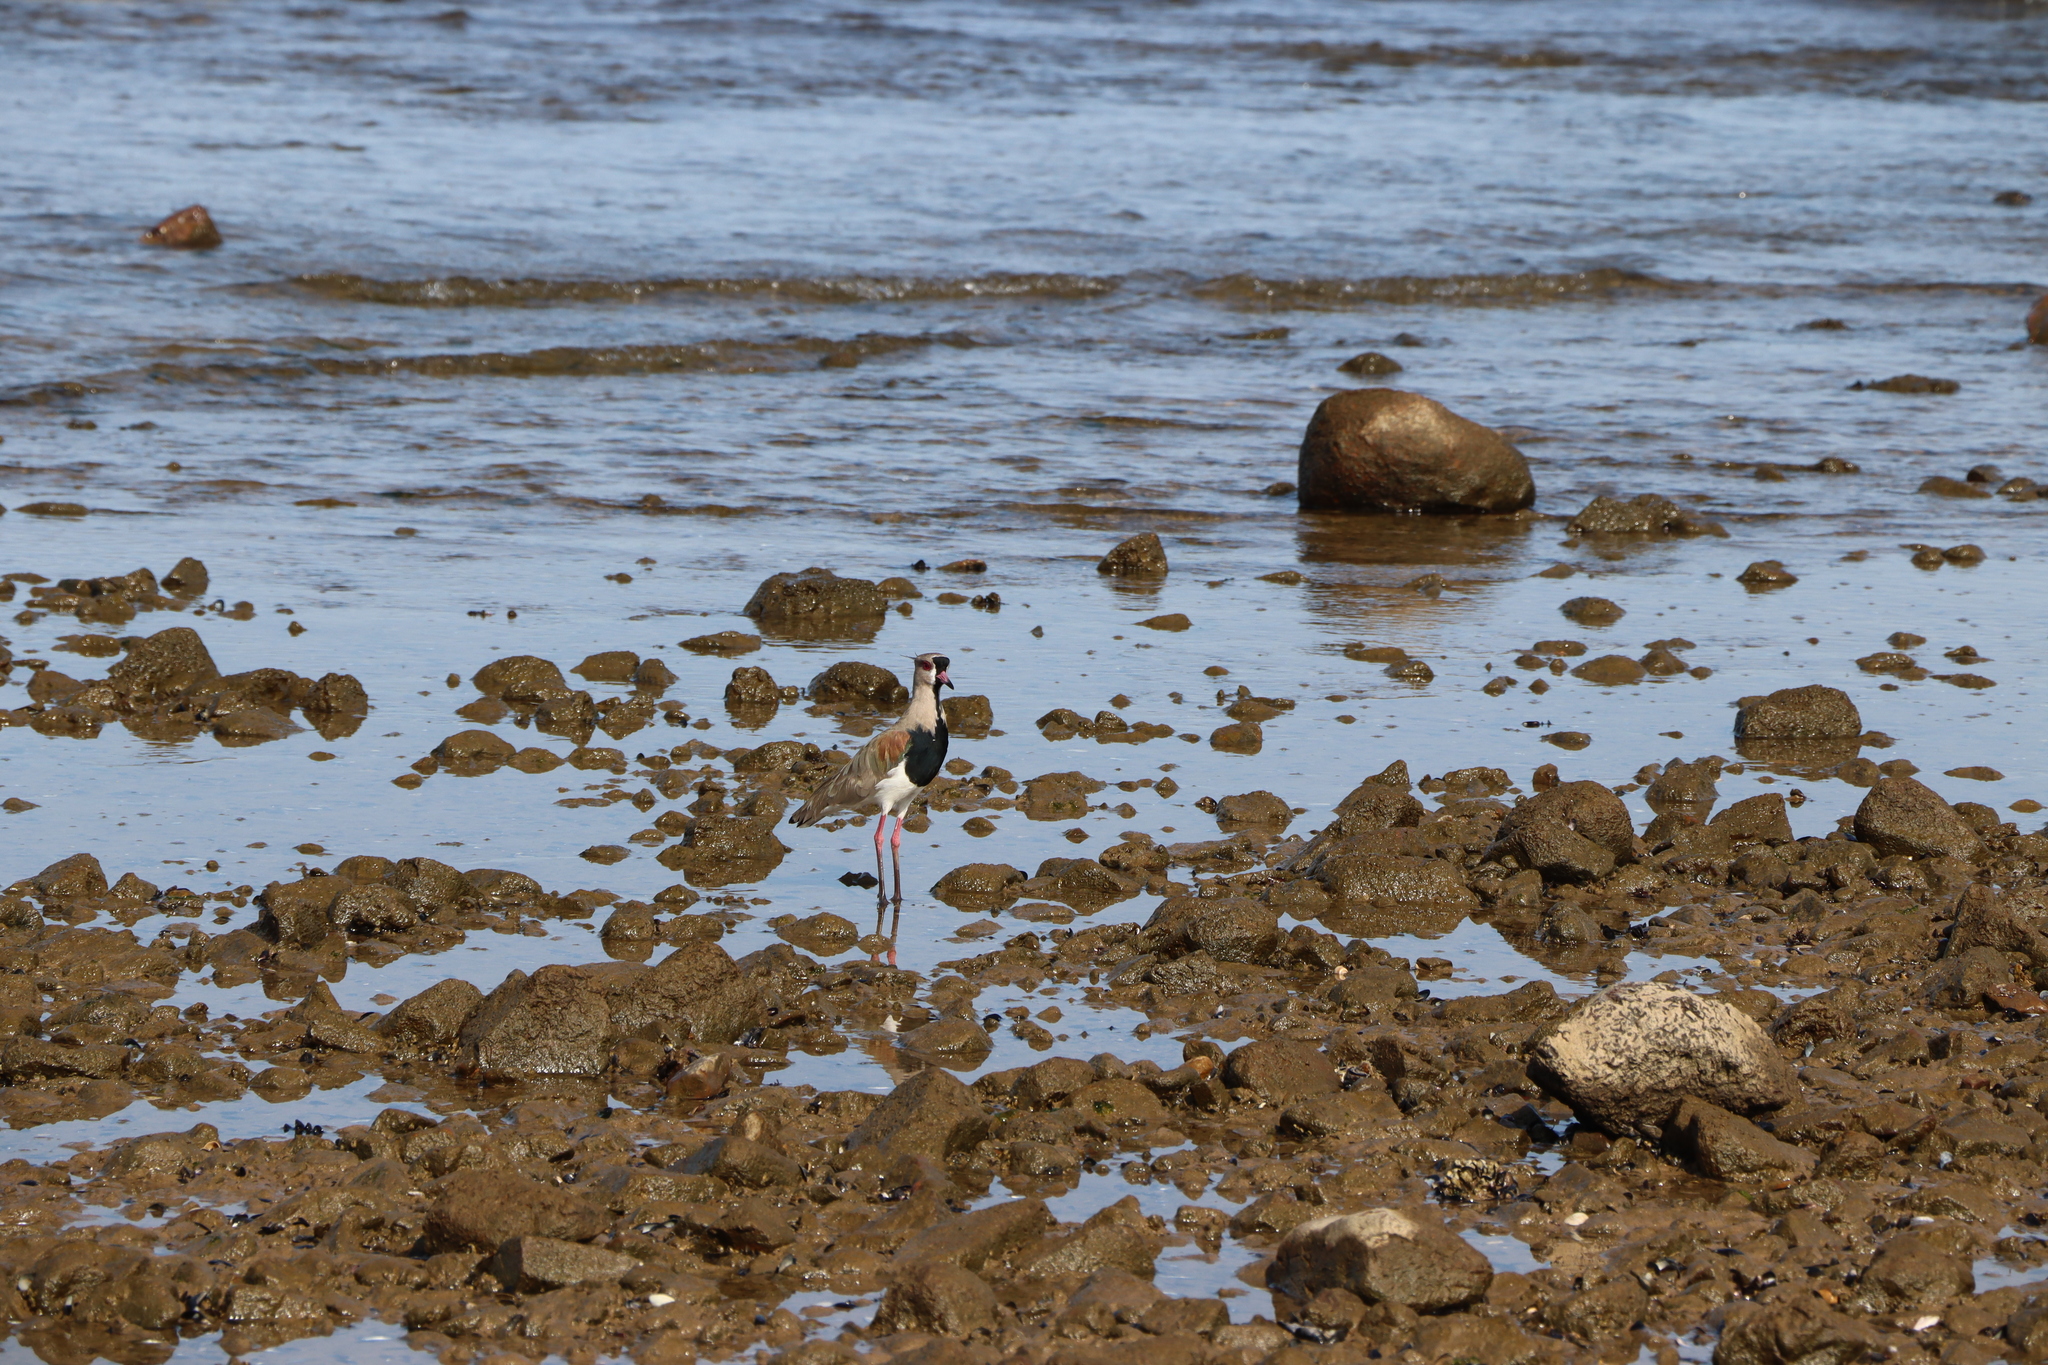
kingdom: Animalia
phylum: Chordata
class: Aves
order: Charadriiformes
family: Charadriidae
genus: Vanellus
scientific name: Vanellus chilensis
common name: Southern lapwing
